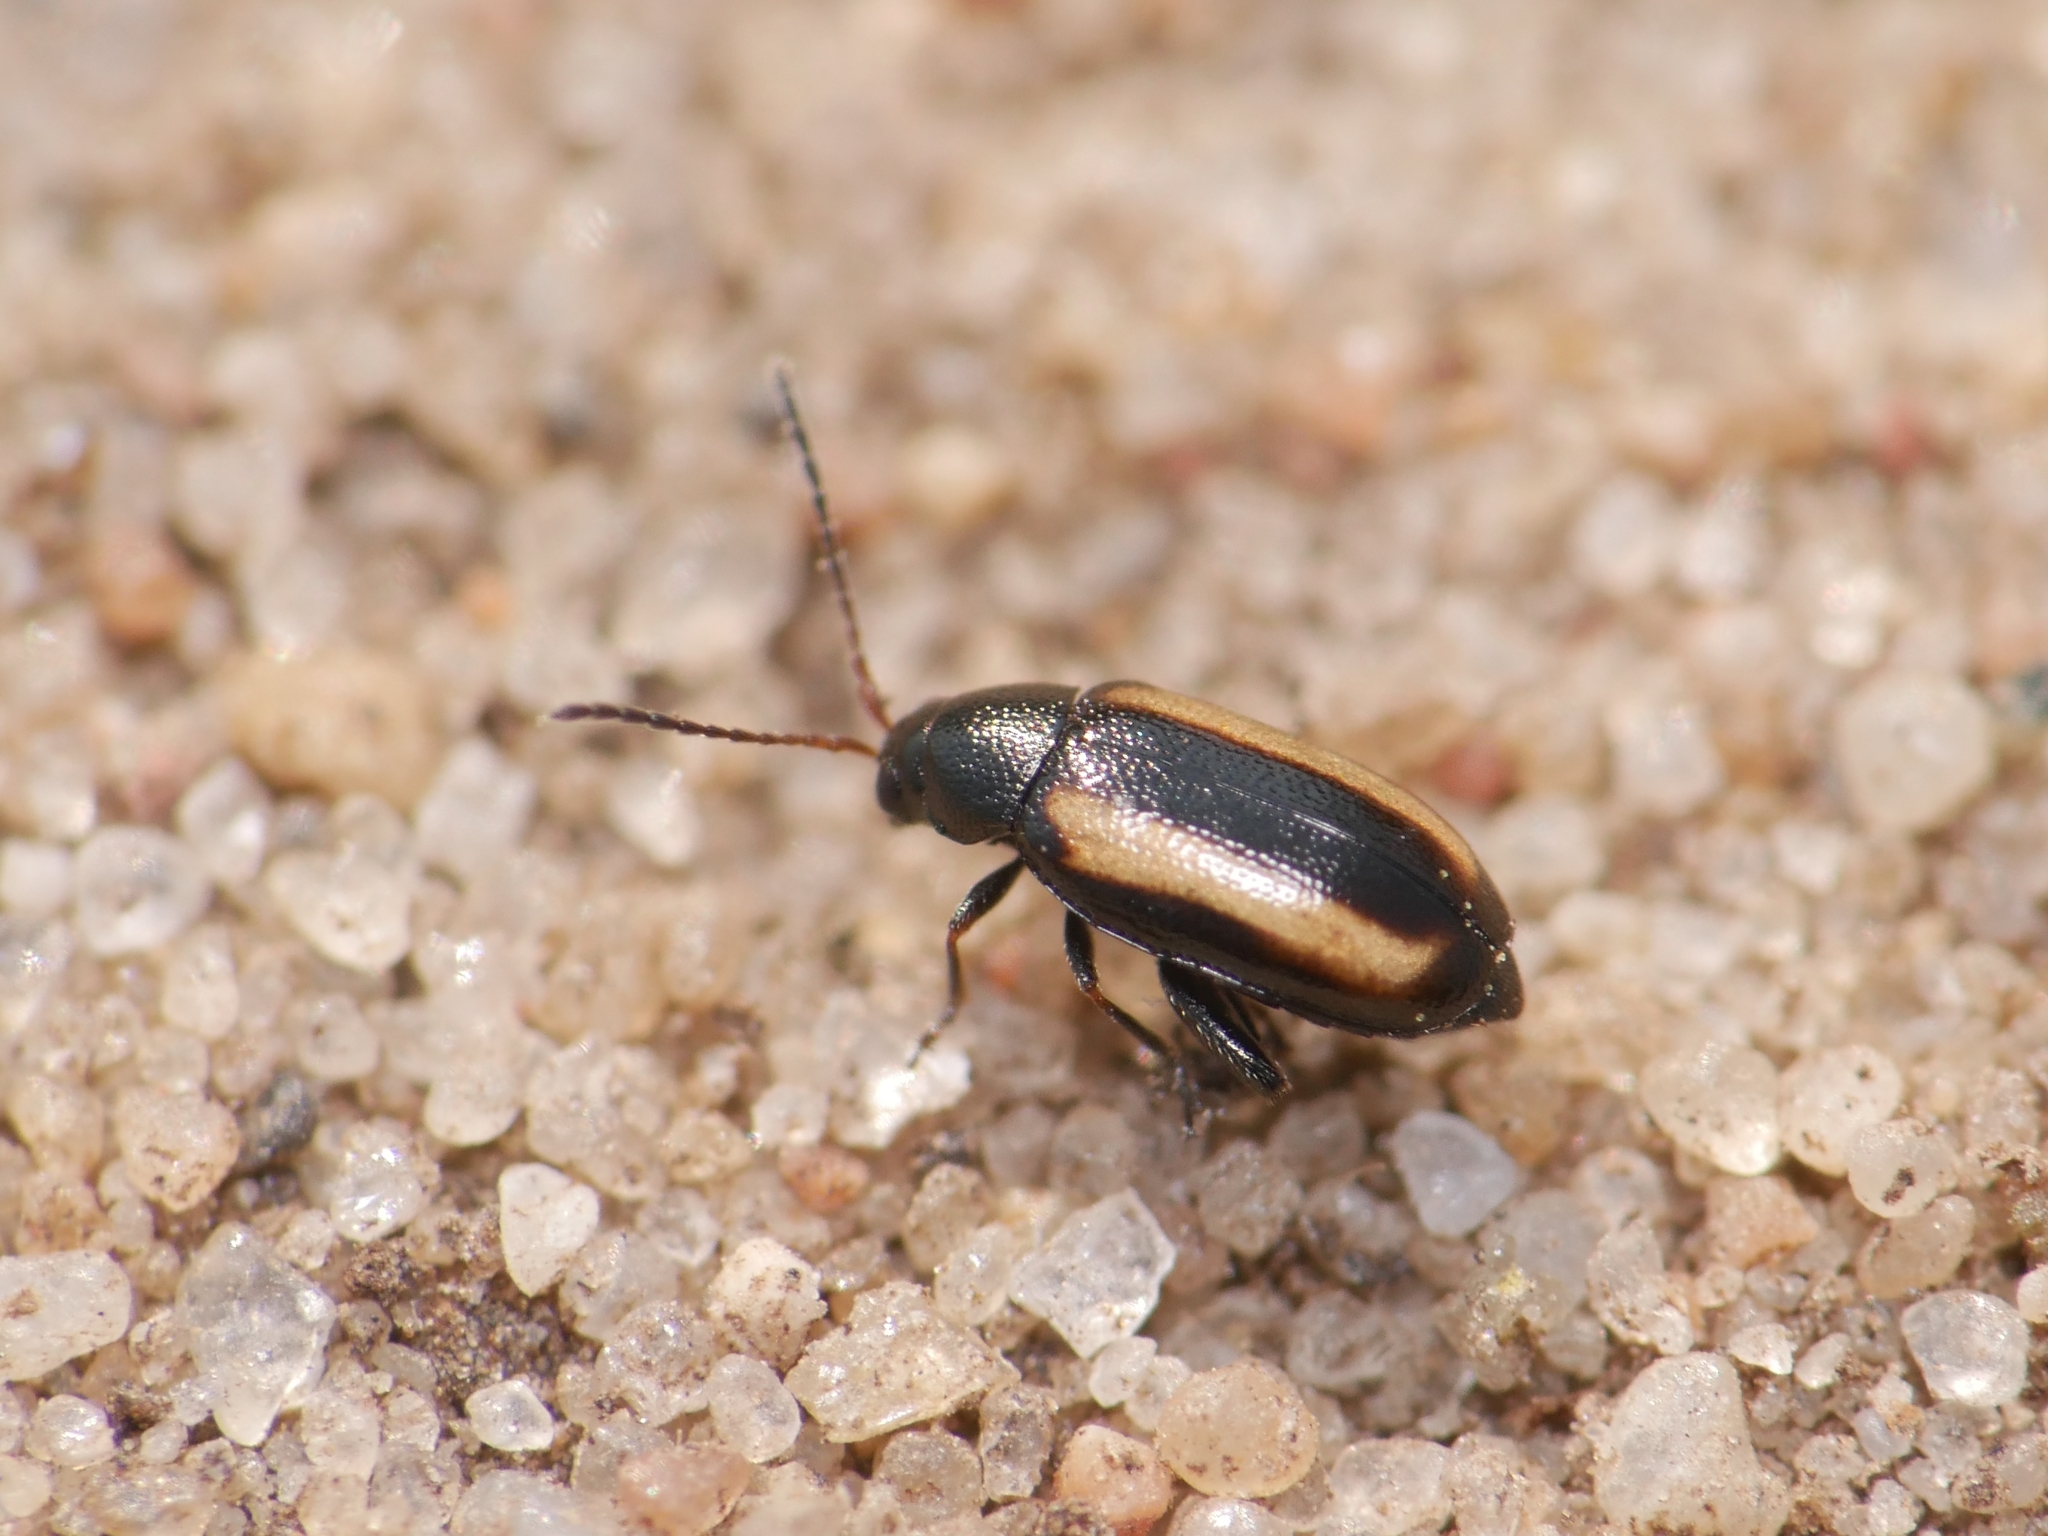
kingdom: Animalia
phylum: Arthropoda
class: Insecta
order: Coleoptera
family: Chrysomelidae
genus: Phyllotreta
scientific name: Phyllotreta vittula
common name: Barley flea beetle
